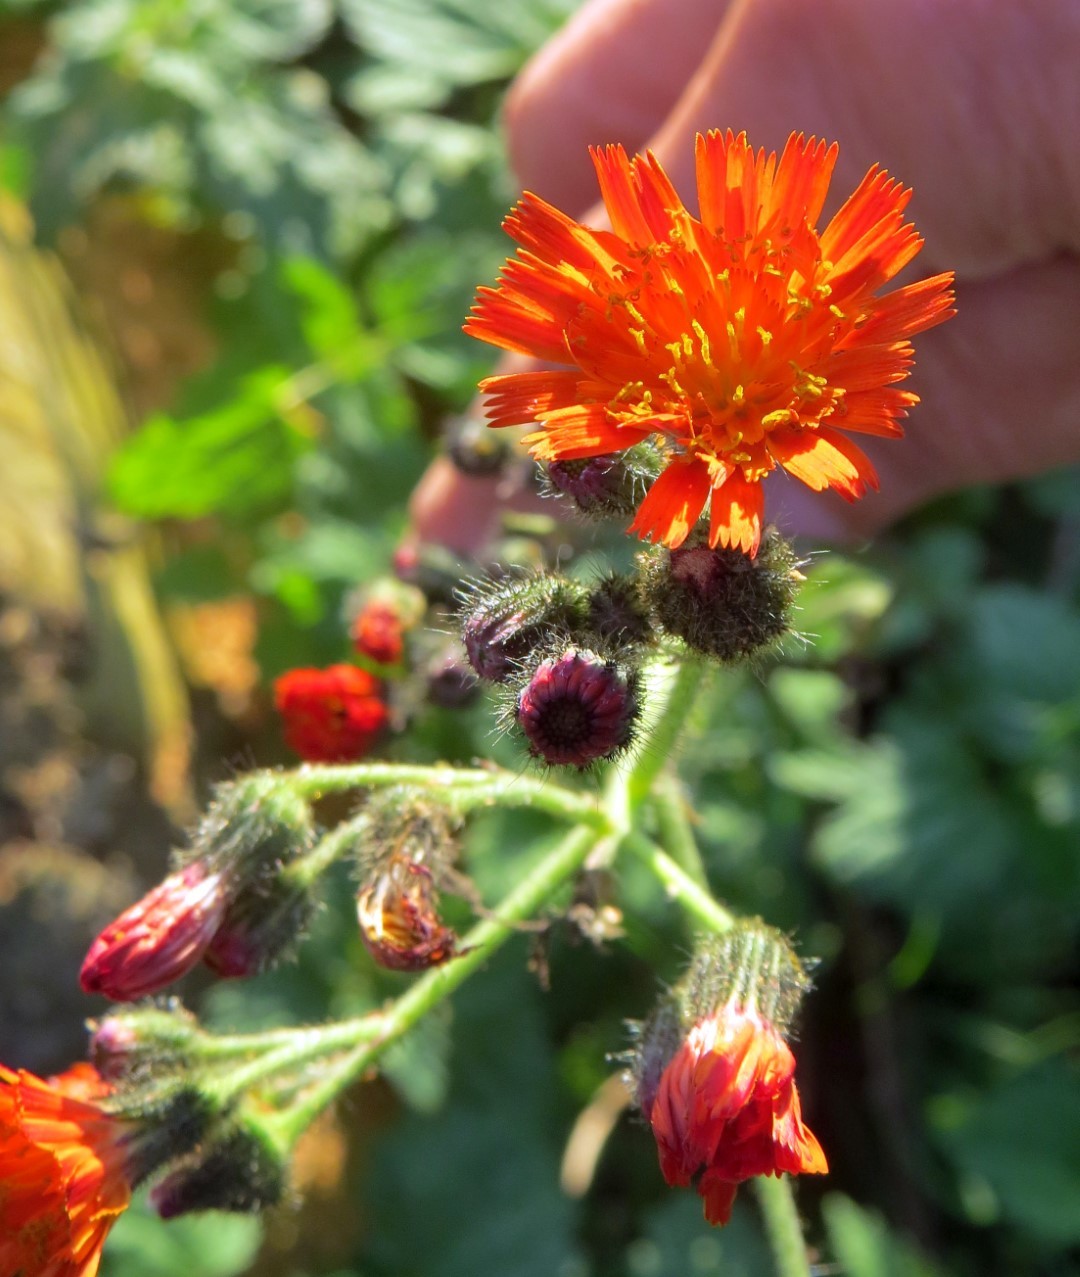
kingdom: Plantae
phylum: Tracheophyta
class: Magnoliopsida
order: Asterales
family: Asteraceae
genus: Pilosella
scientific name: Pilosella aurantiaca
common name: Fox-and-cubs
